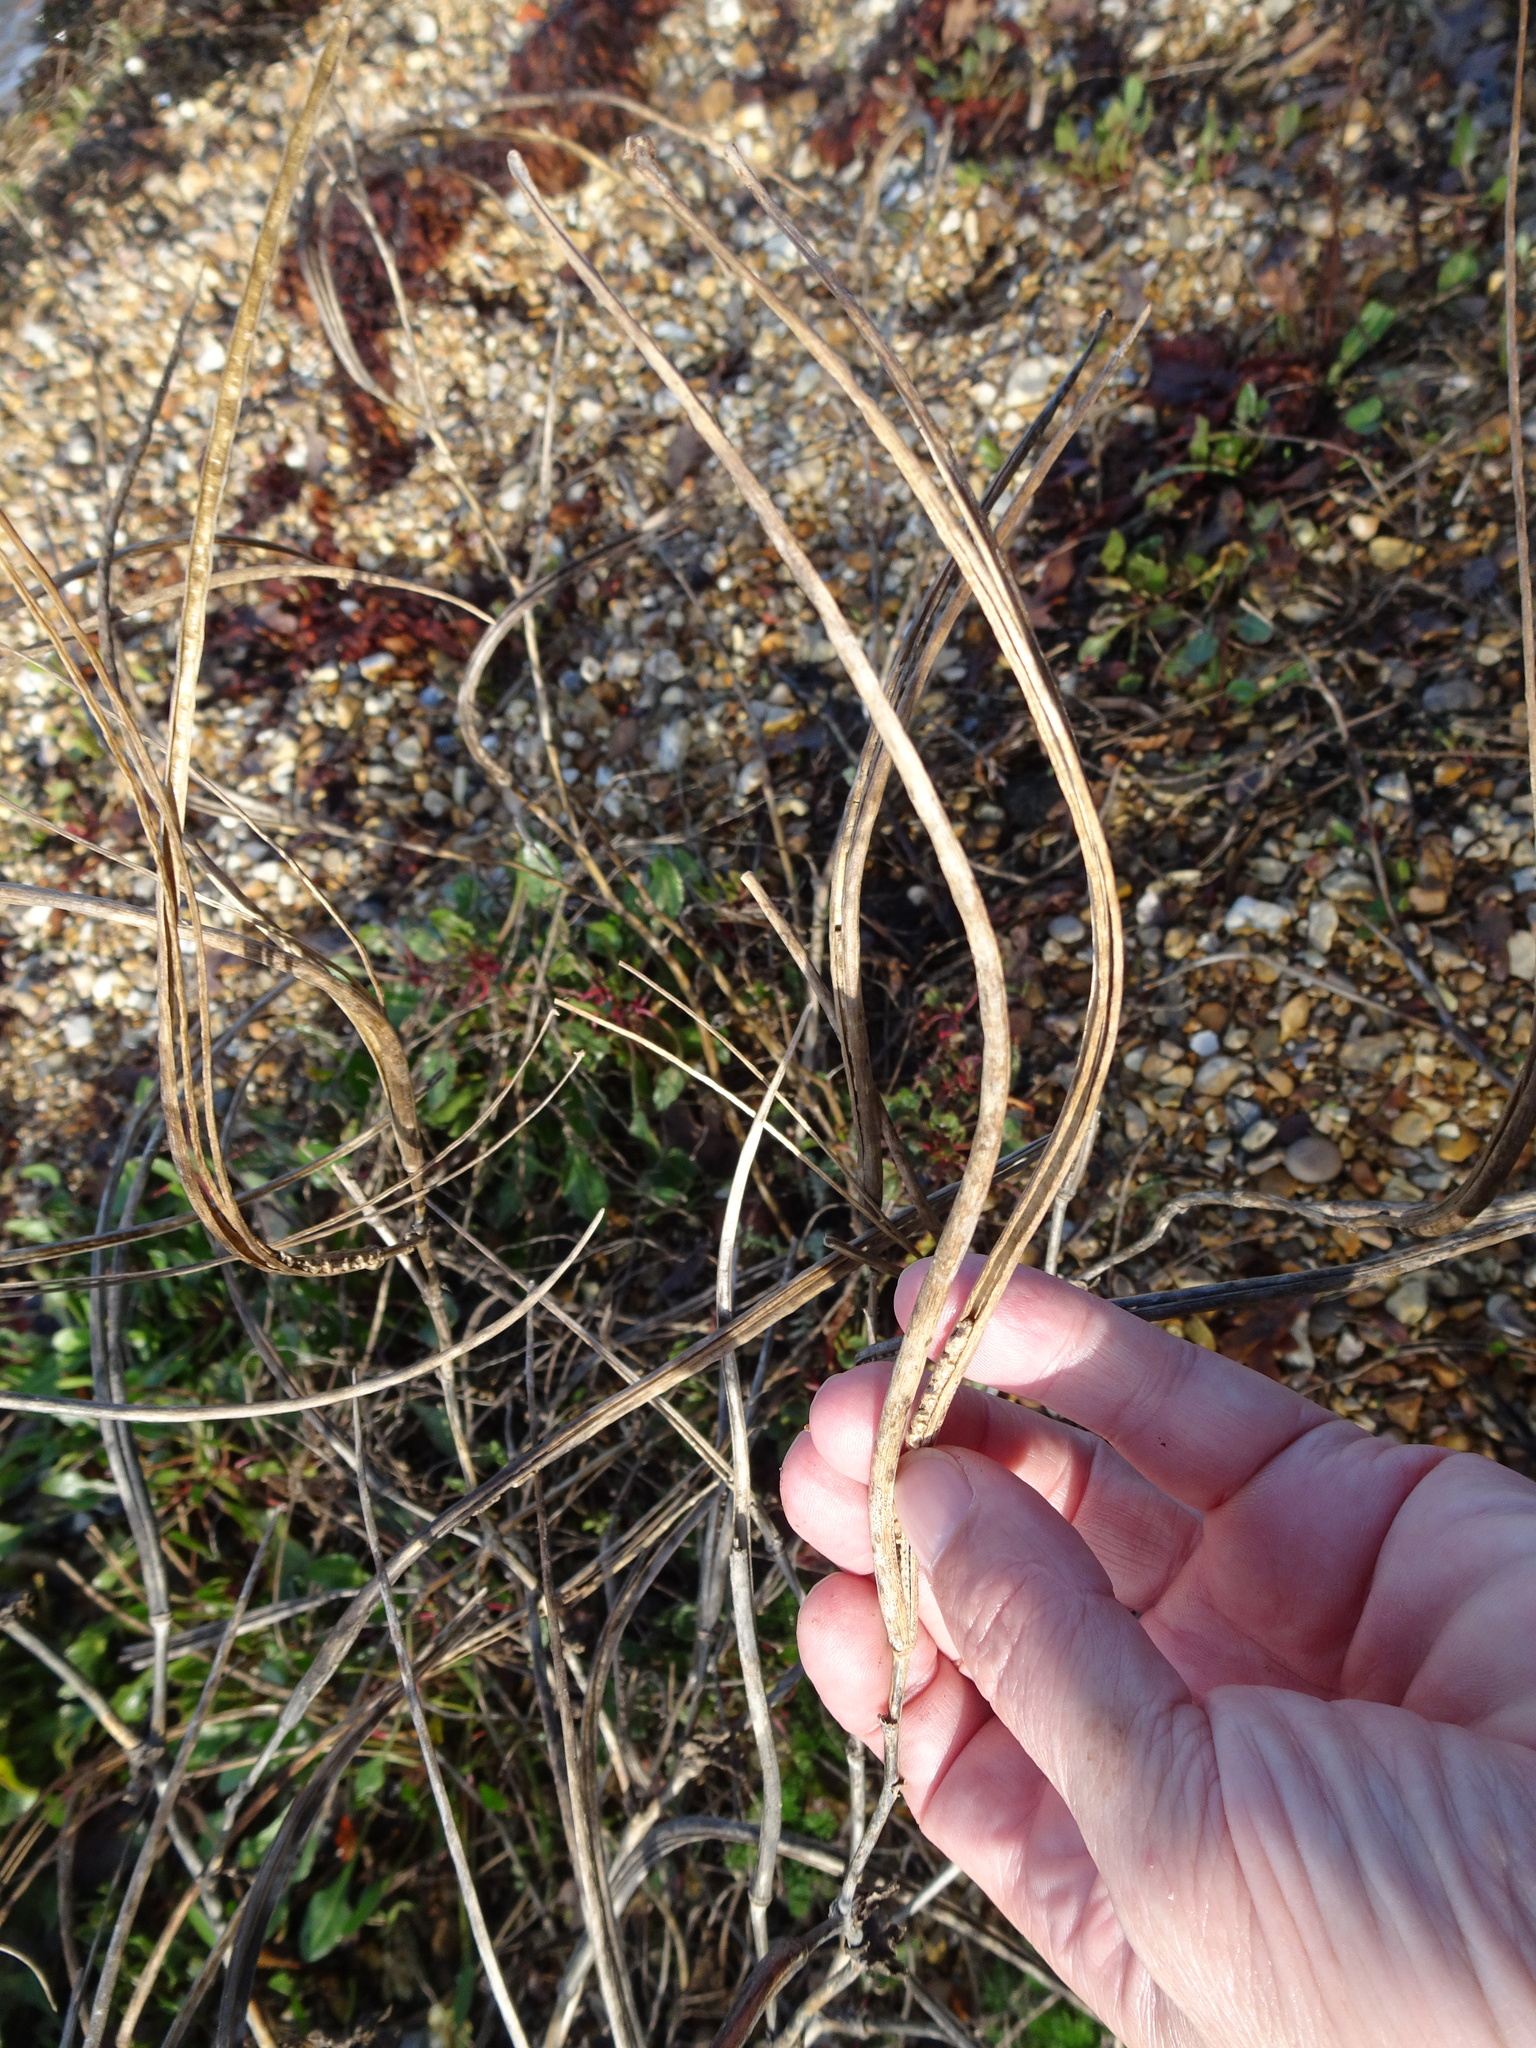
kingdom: Plantae
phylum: Tracheophyta
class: Magnoliopsida
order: Ranunculales
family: Papaveraceae
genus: Glaucium
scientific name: Glaucium flavum
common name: Yellow horned-poppy
